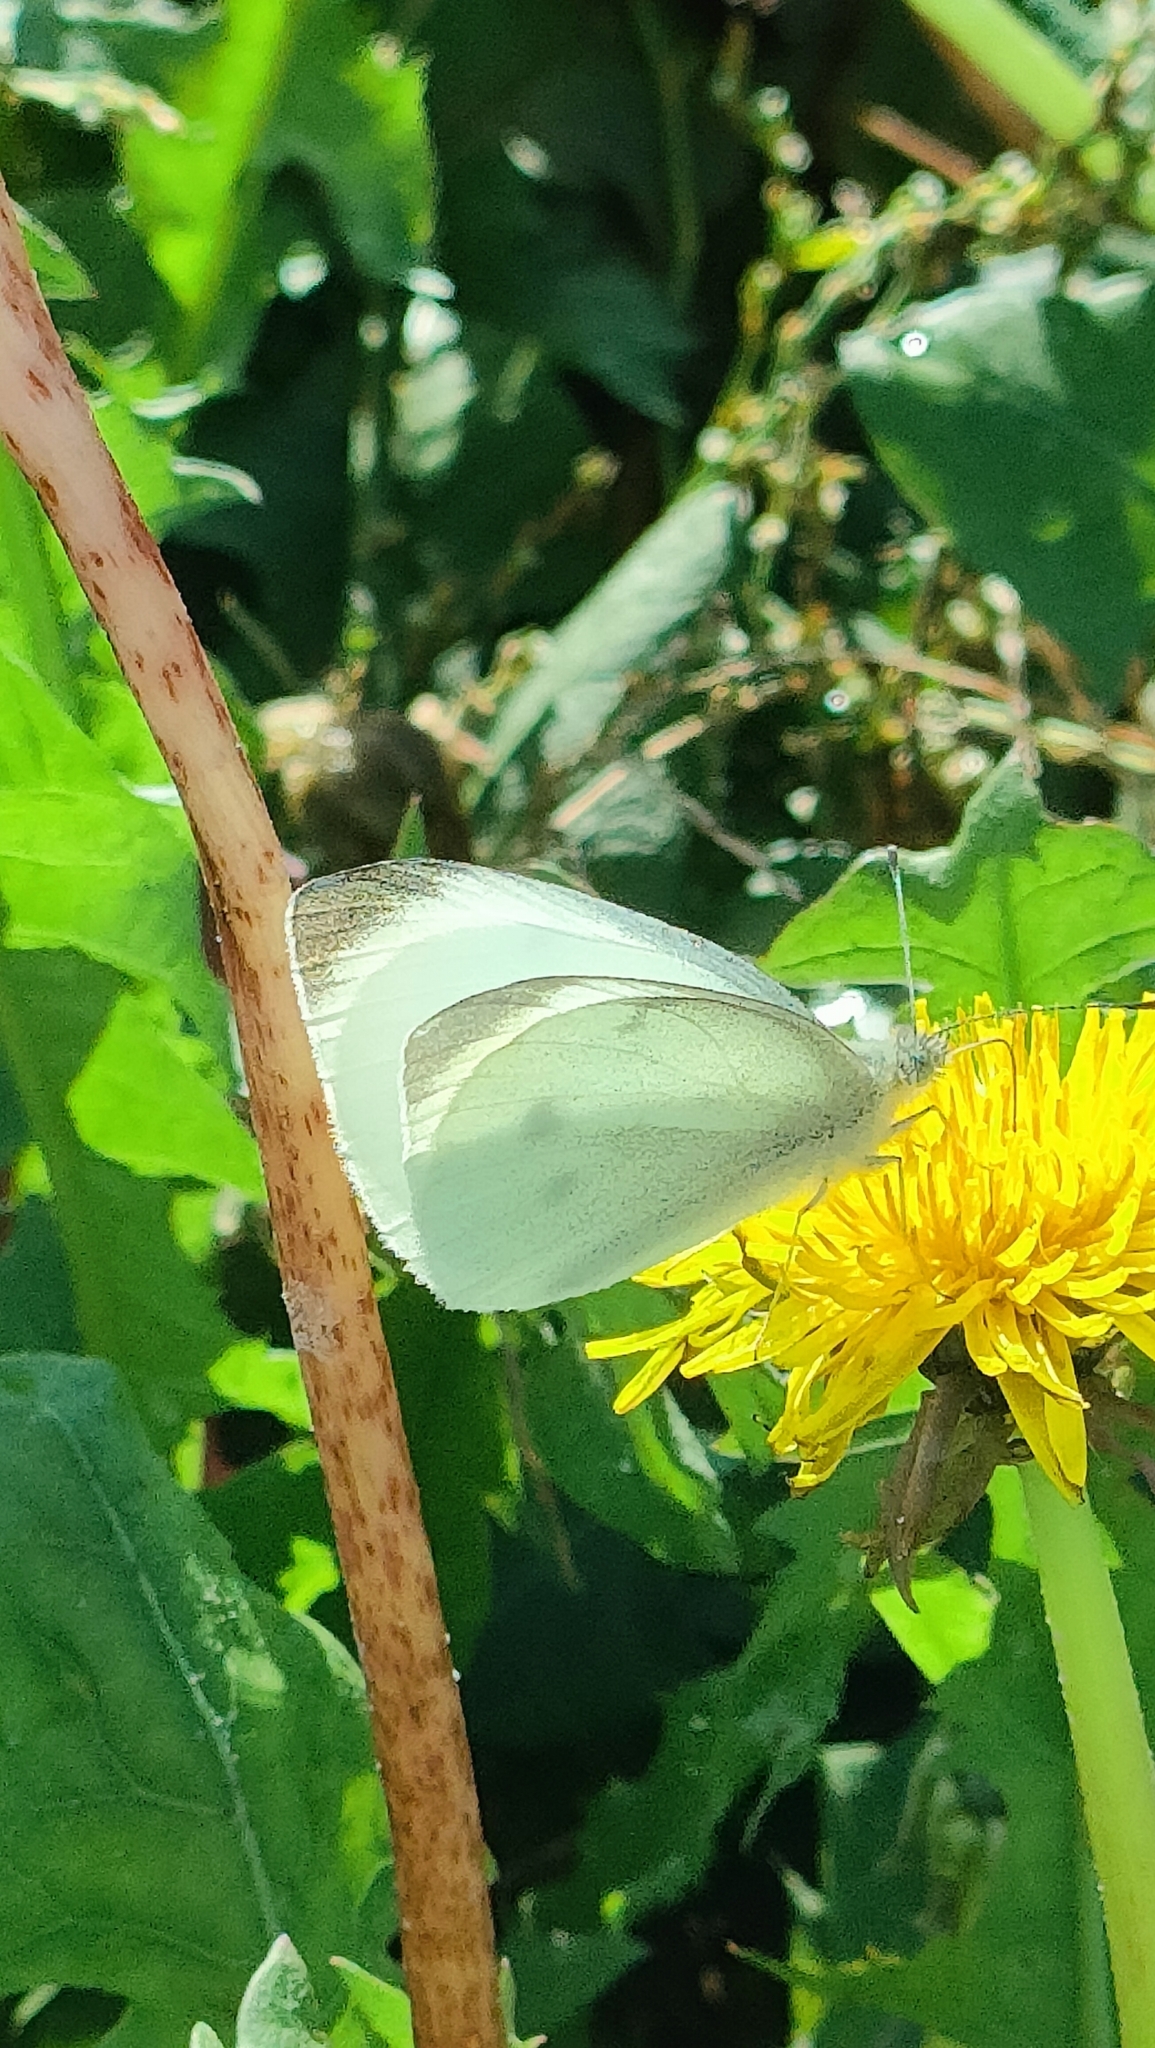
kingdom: Animalia
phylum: Arthropoda
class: Insecta
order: Lepidoptera
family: Pieridae
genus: Pieris
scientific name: Pieris rapae
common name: Small white
